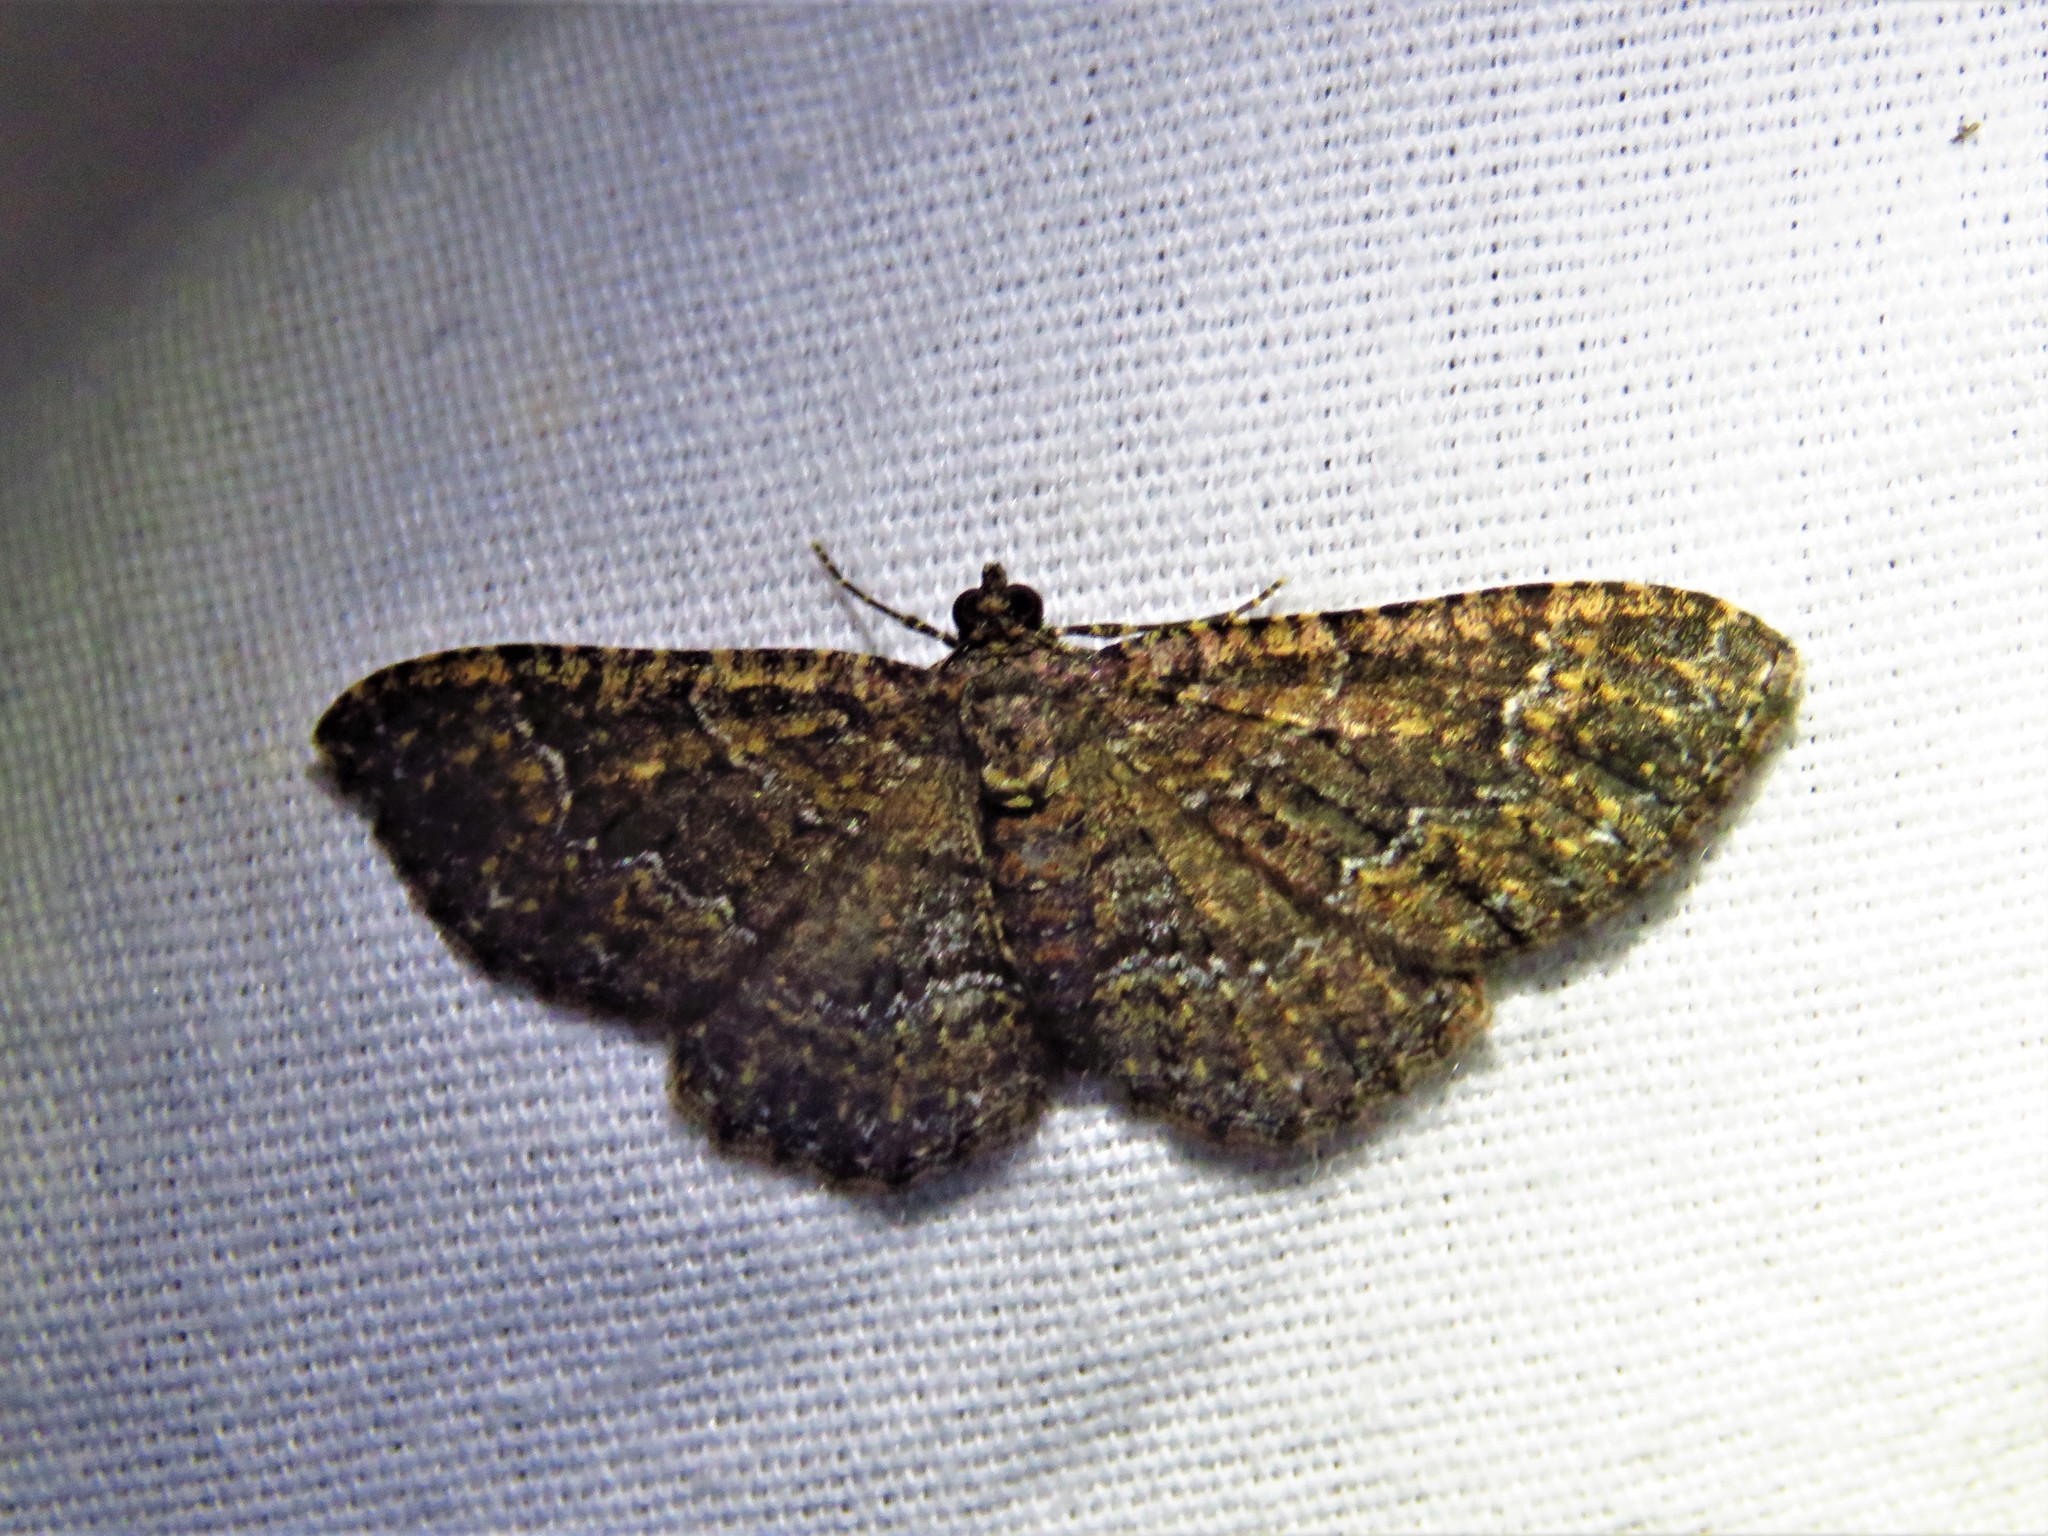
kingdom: Animalia
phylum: Arthropoda
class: Insecta
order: Lepidoptera
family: Geometridae
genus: Disclisioprocta
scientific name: Disclisioprocta stellata
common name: Somber carpet
